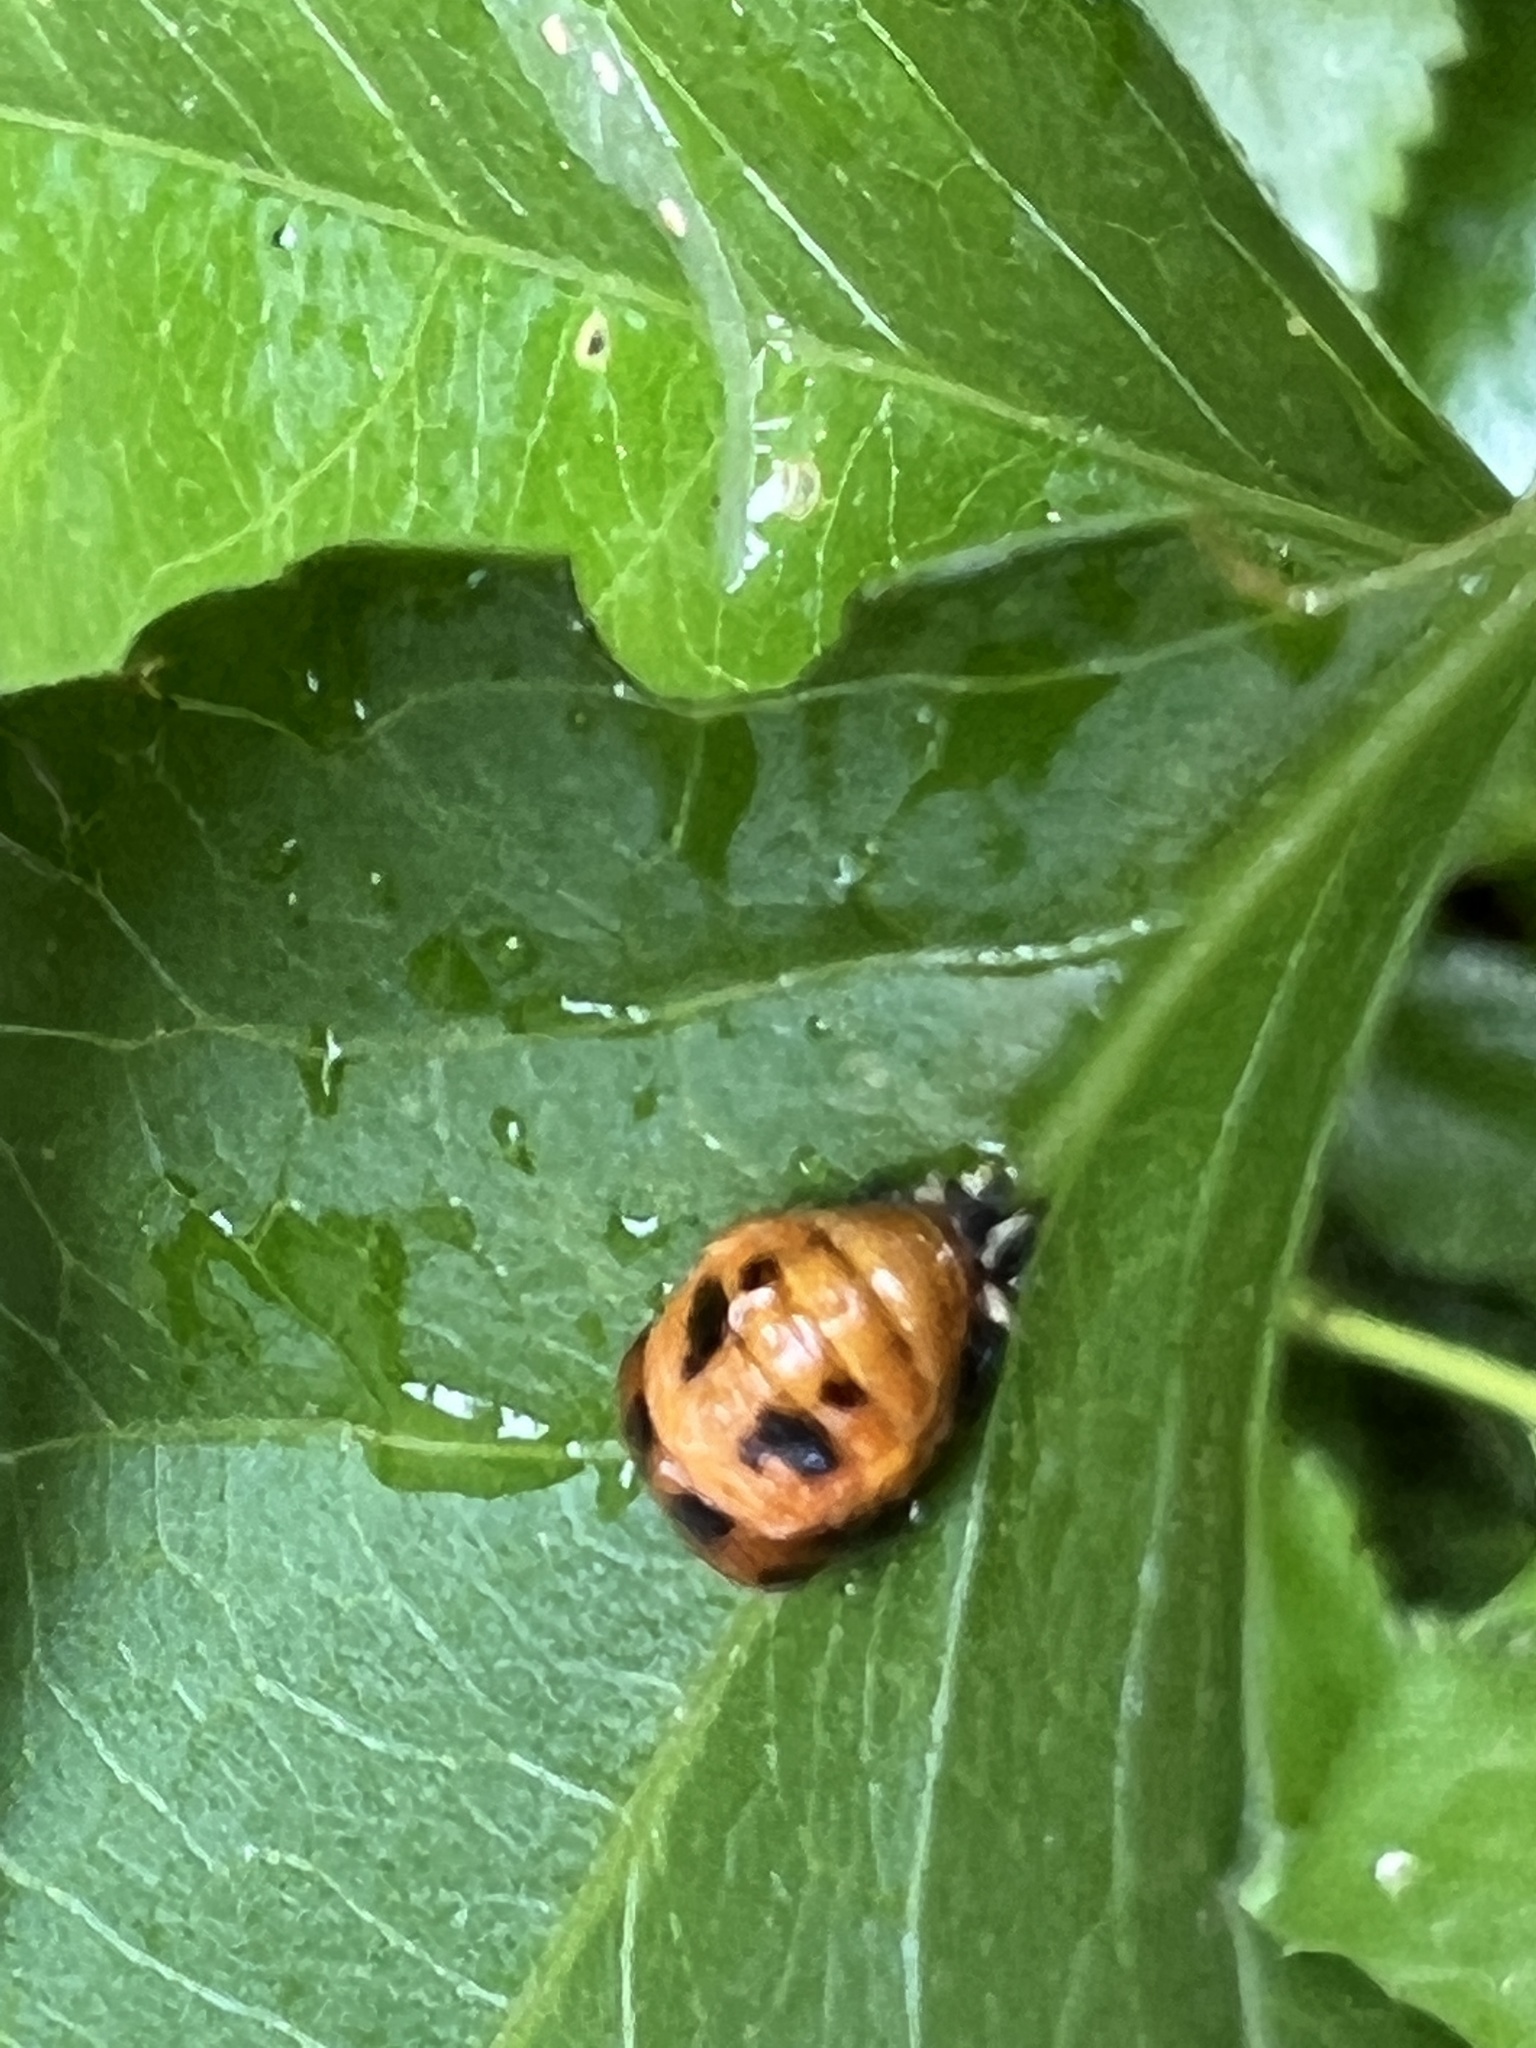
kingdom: Animalia
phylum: Arthropoda
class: Insecta
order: Coleoptera
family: Coccinellidae
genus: Harmonia
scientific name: Harmonia axyridis
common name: Harlequin ladybird
